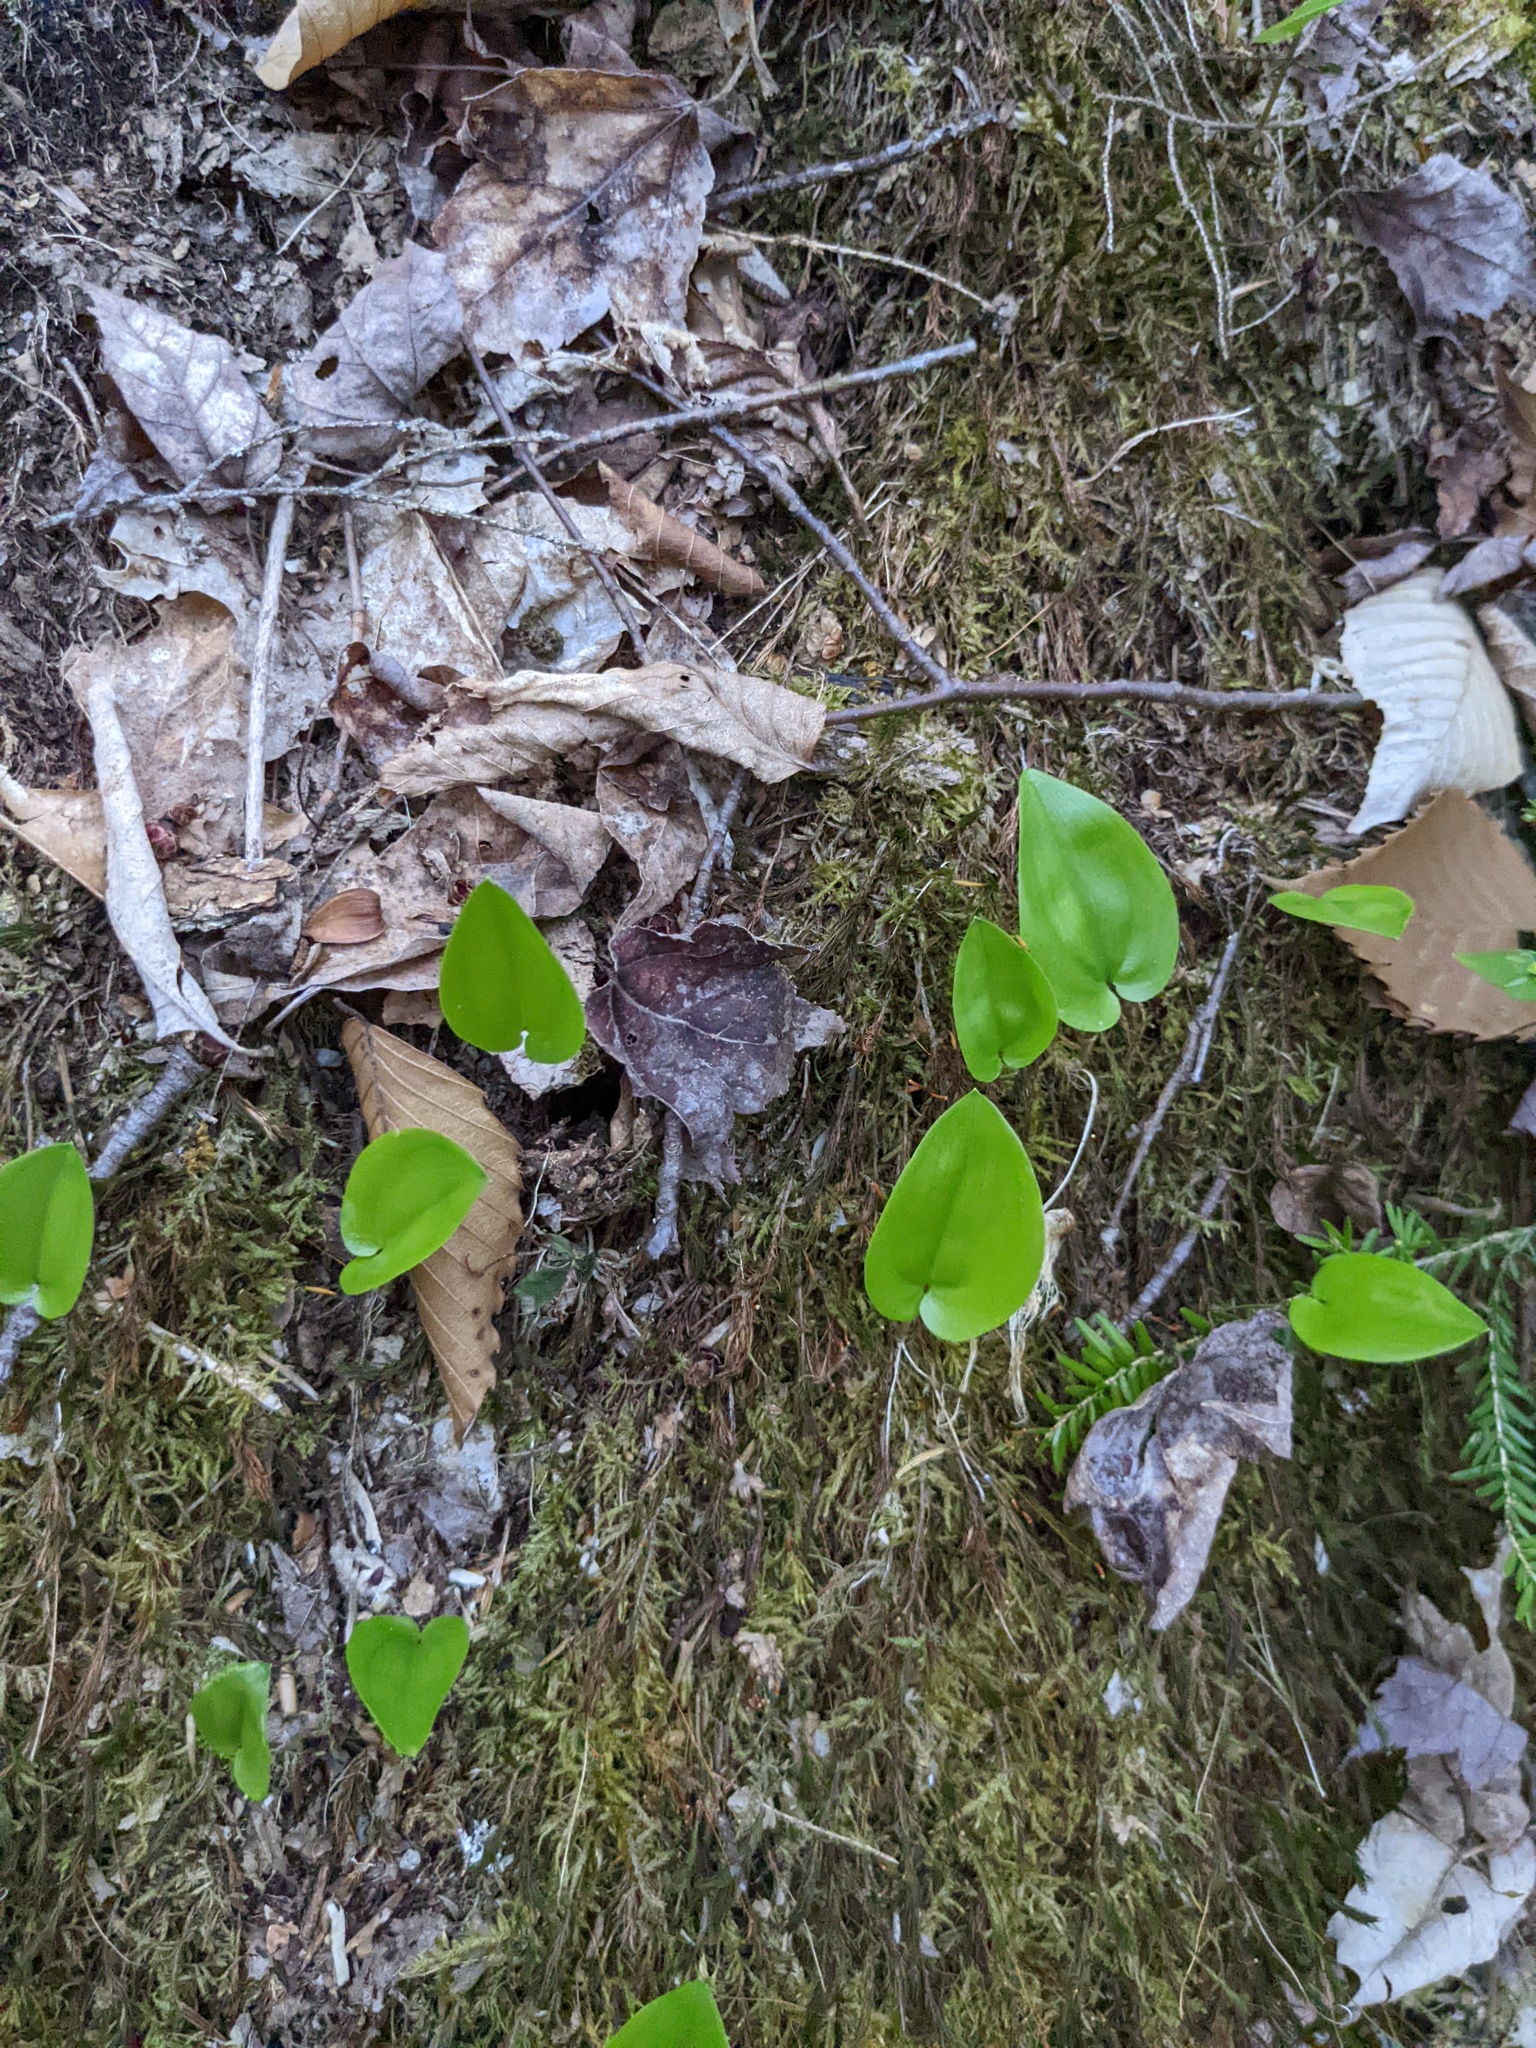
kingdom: Plantae
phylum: Tracheophyta
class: Liliopsida
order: Asparagales
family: Asparagaceae
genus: Maianthemum
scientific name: Maianthemum canadense
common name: False lily-of-the-valley
